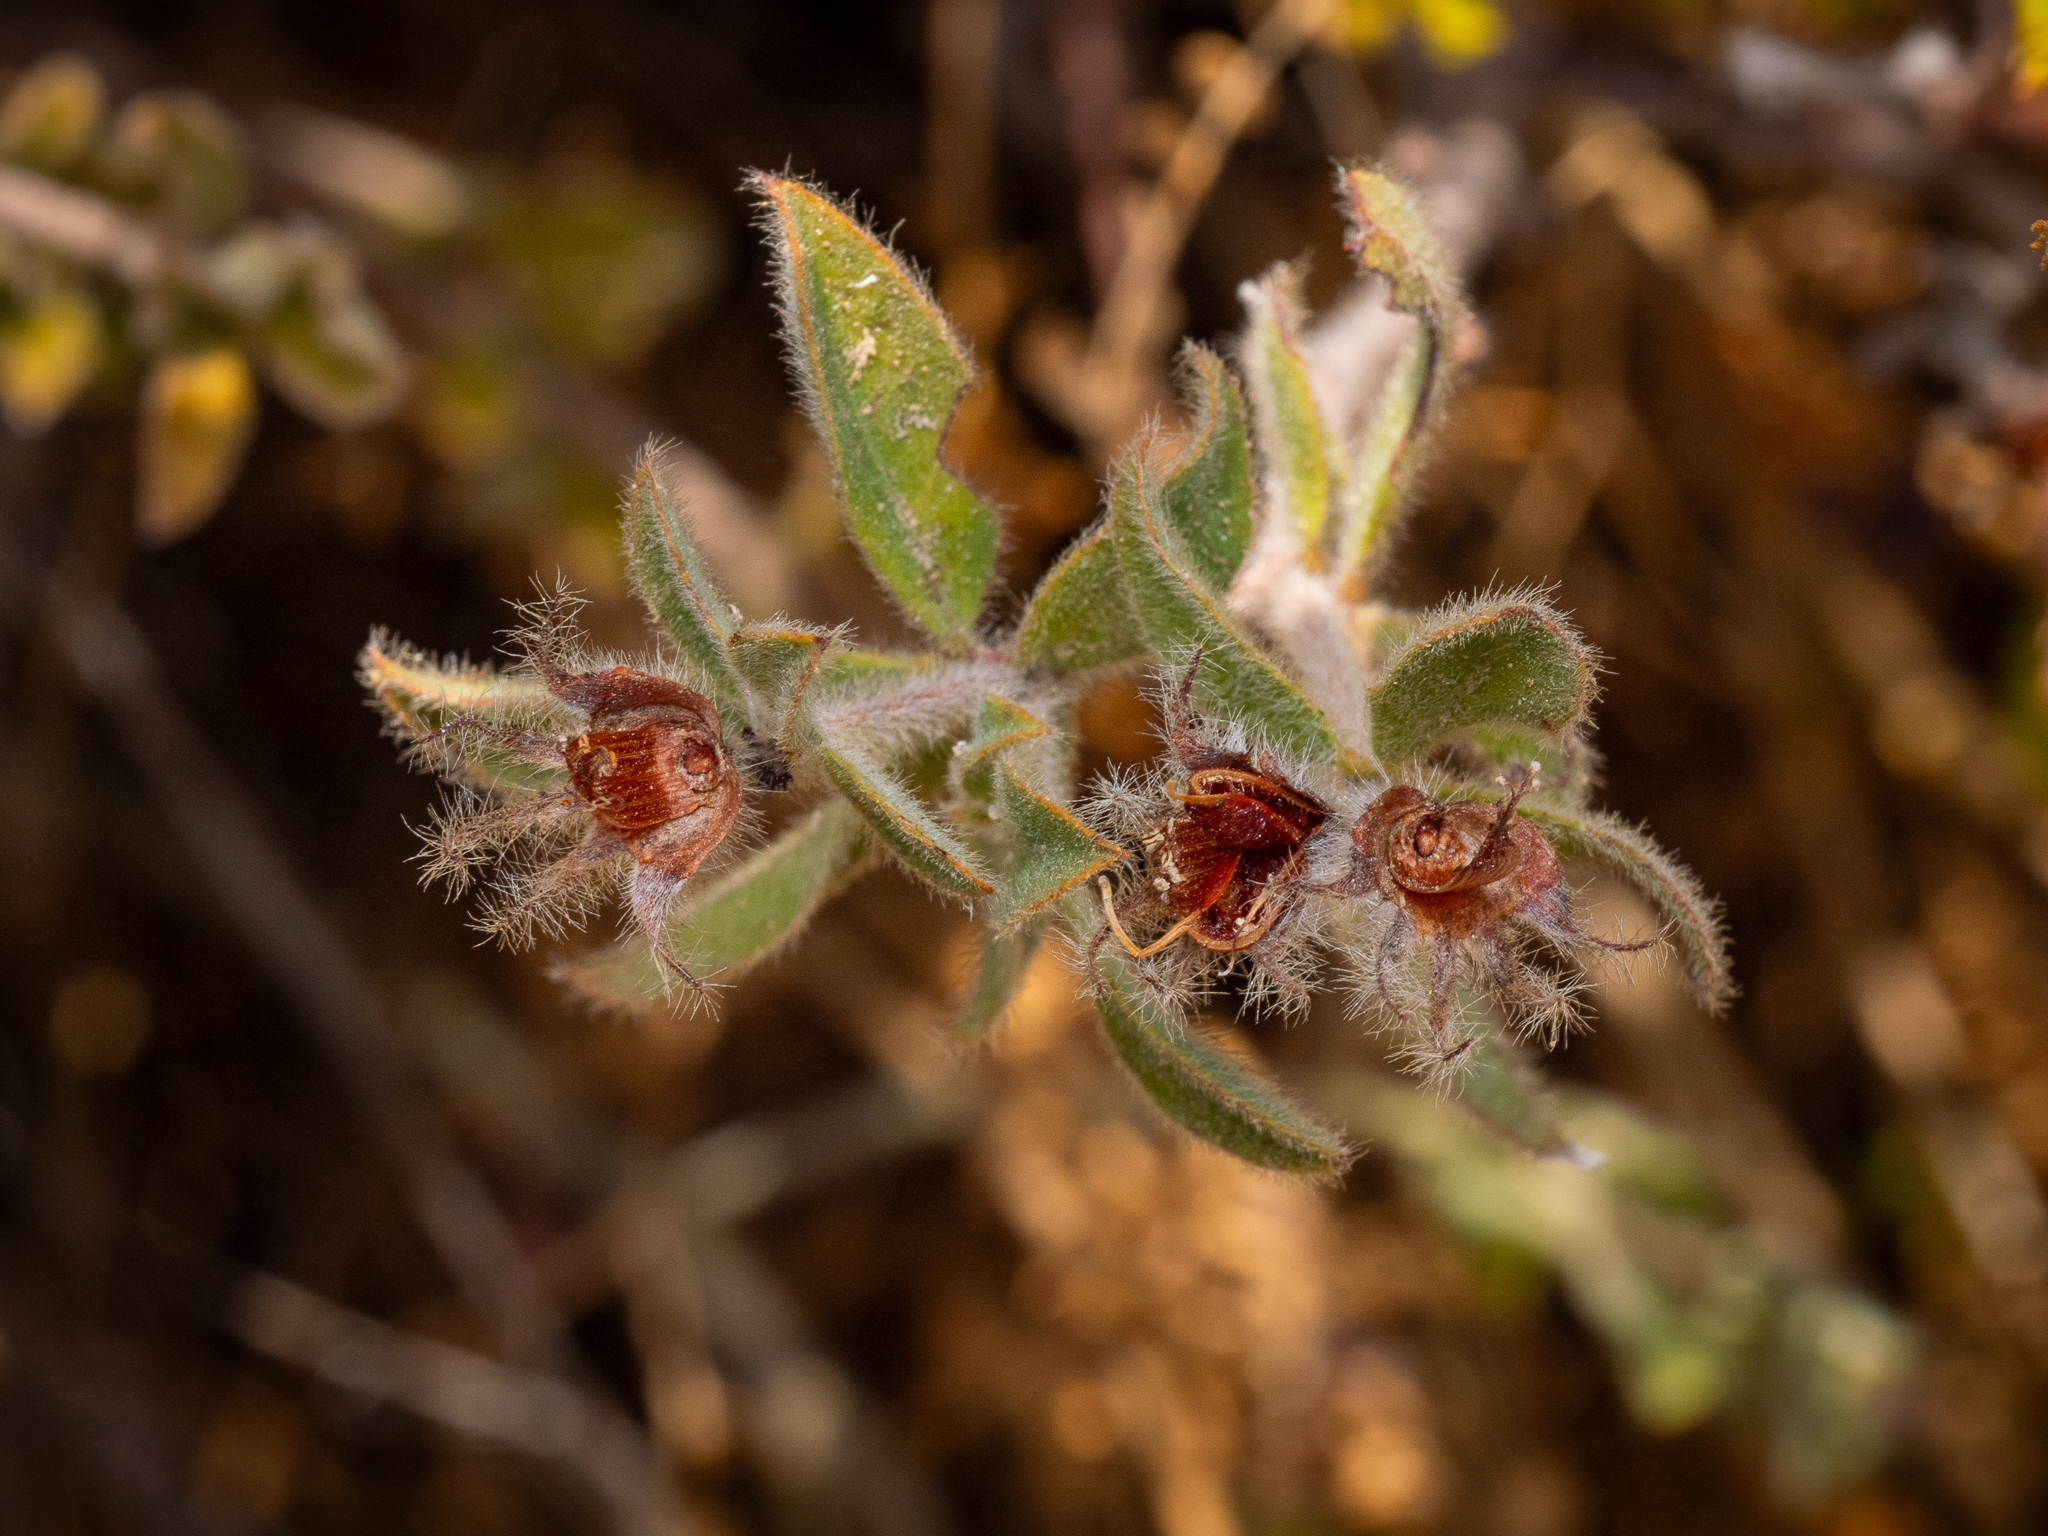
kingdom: Plantae
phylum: Tracheophyta
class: Magnoliopsida
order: Fabales
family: Fabaceae
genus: Lotus
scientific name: Lotus hirsutus
